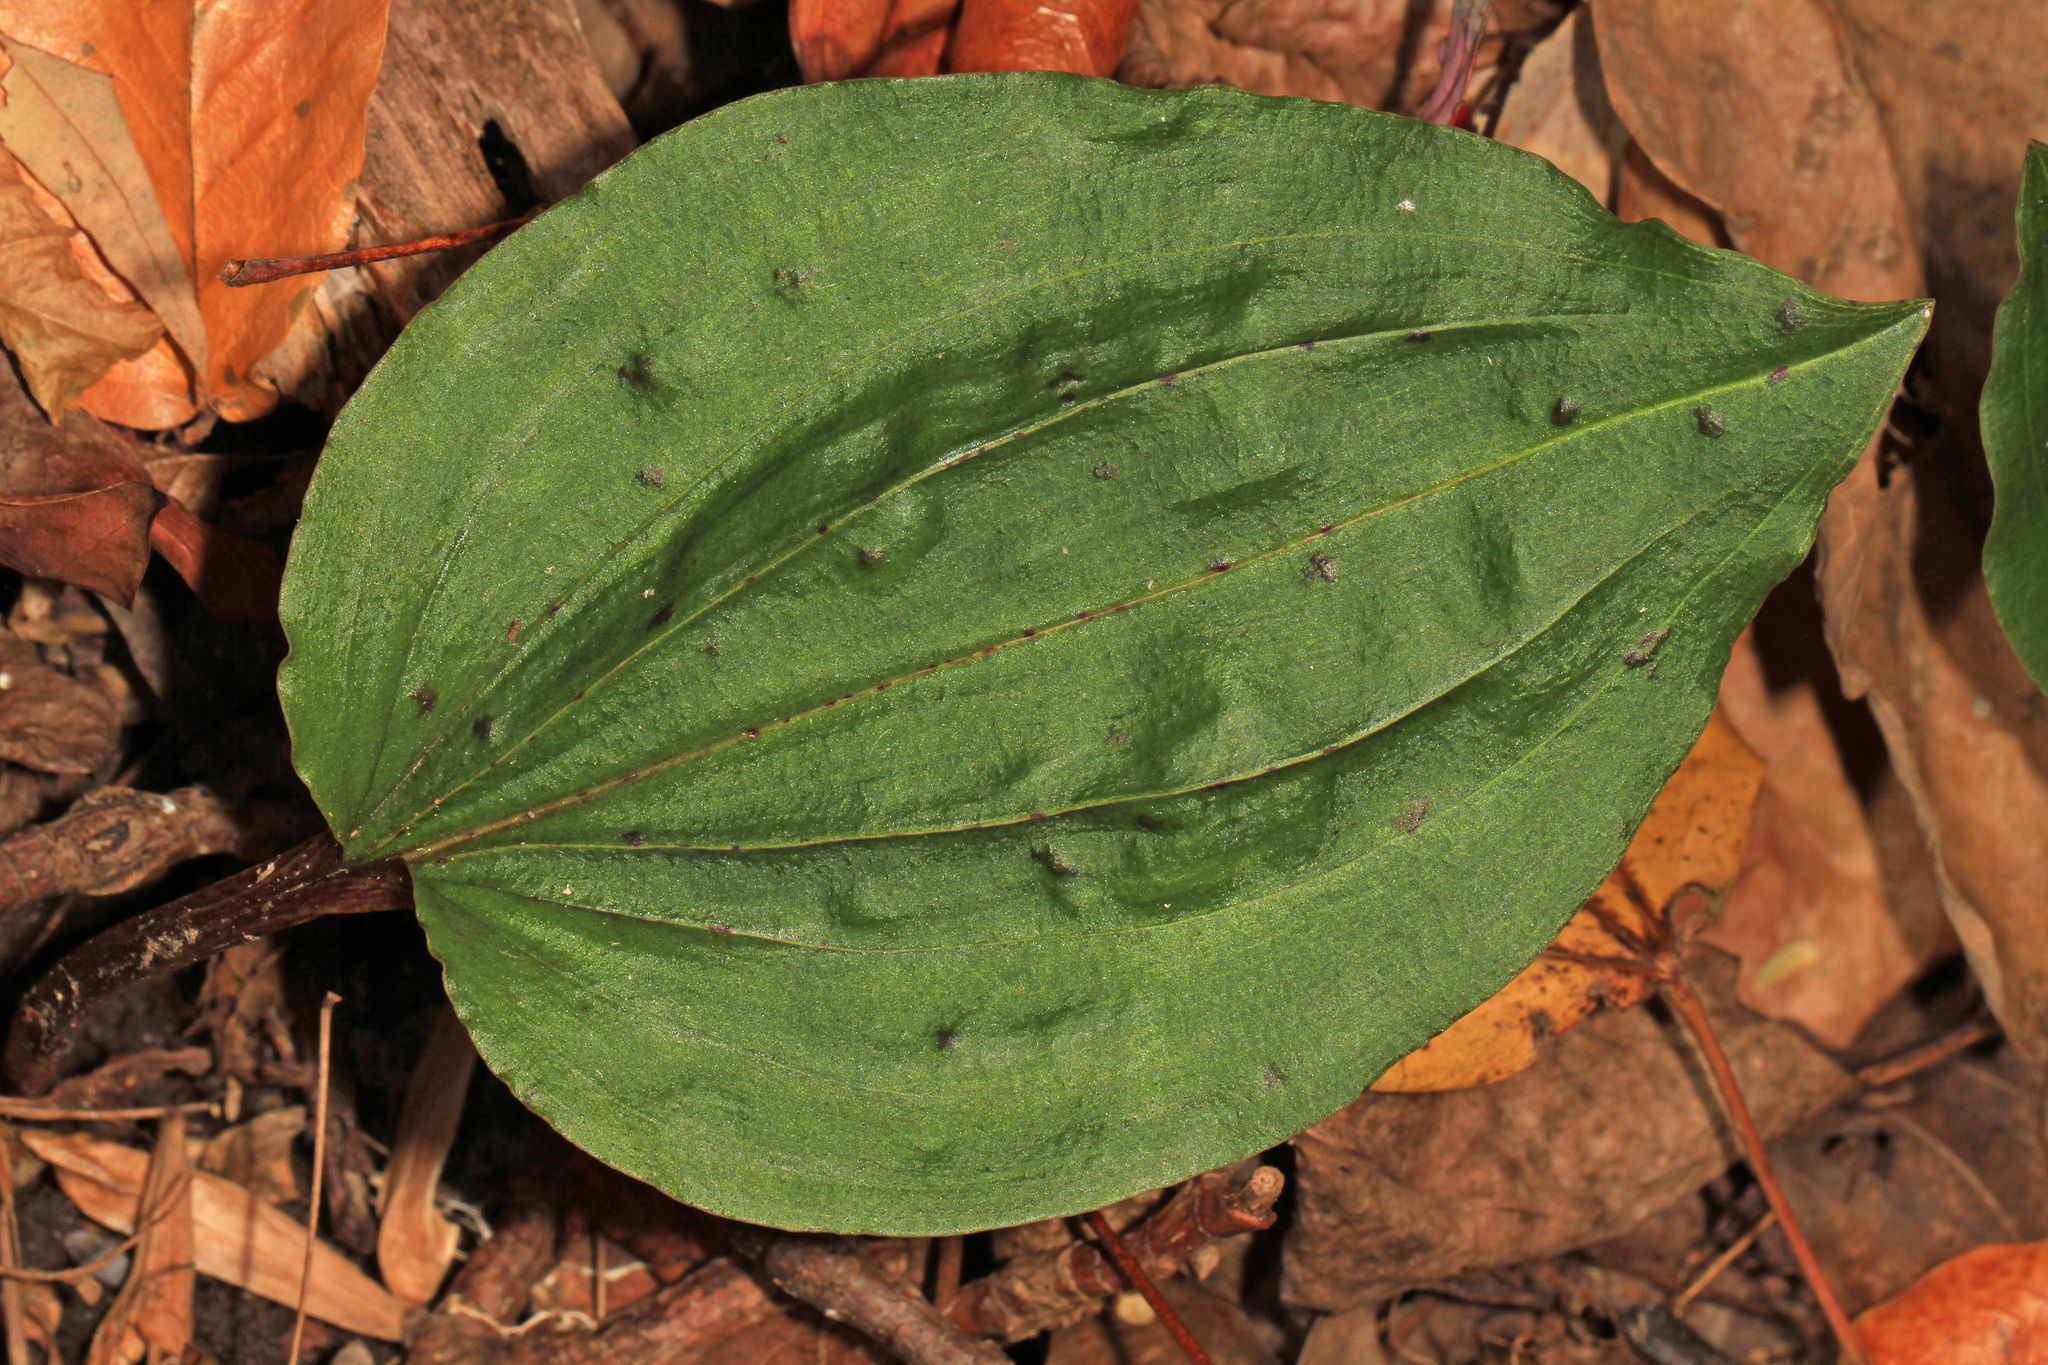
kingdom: Plantae
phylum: Tracheophyta
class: Liliopsida
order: Asparagales
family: Orchidaceae
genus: Tipularia
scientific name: Tipularia discolor
